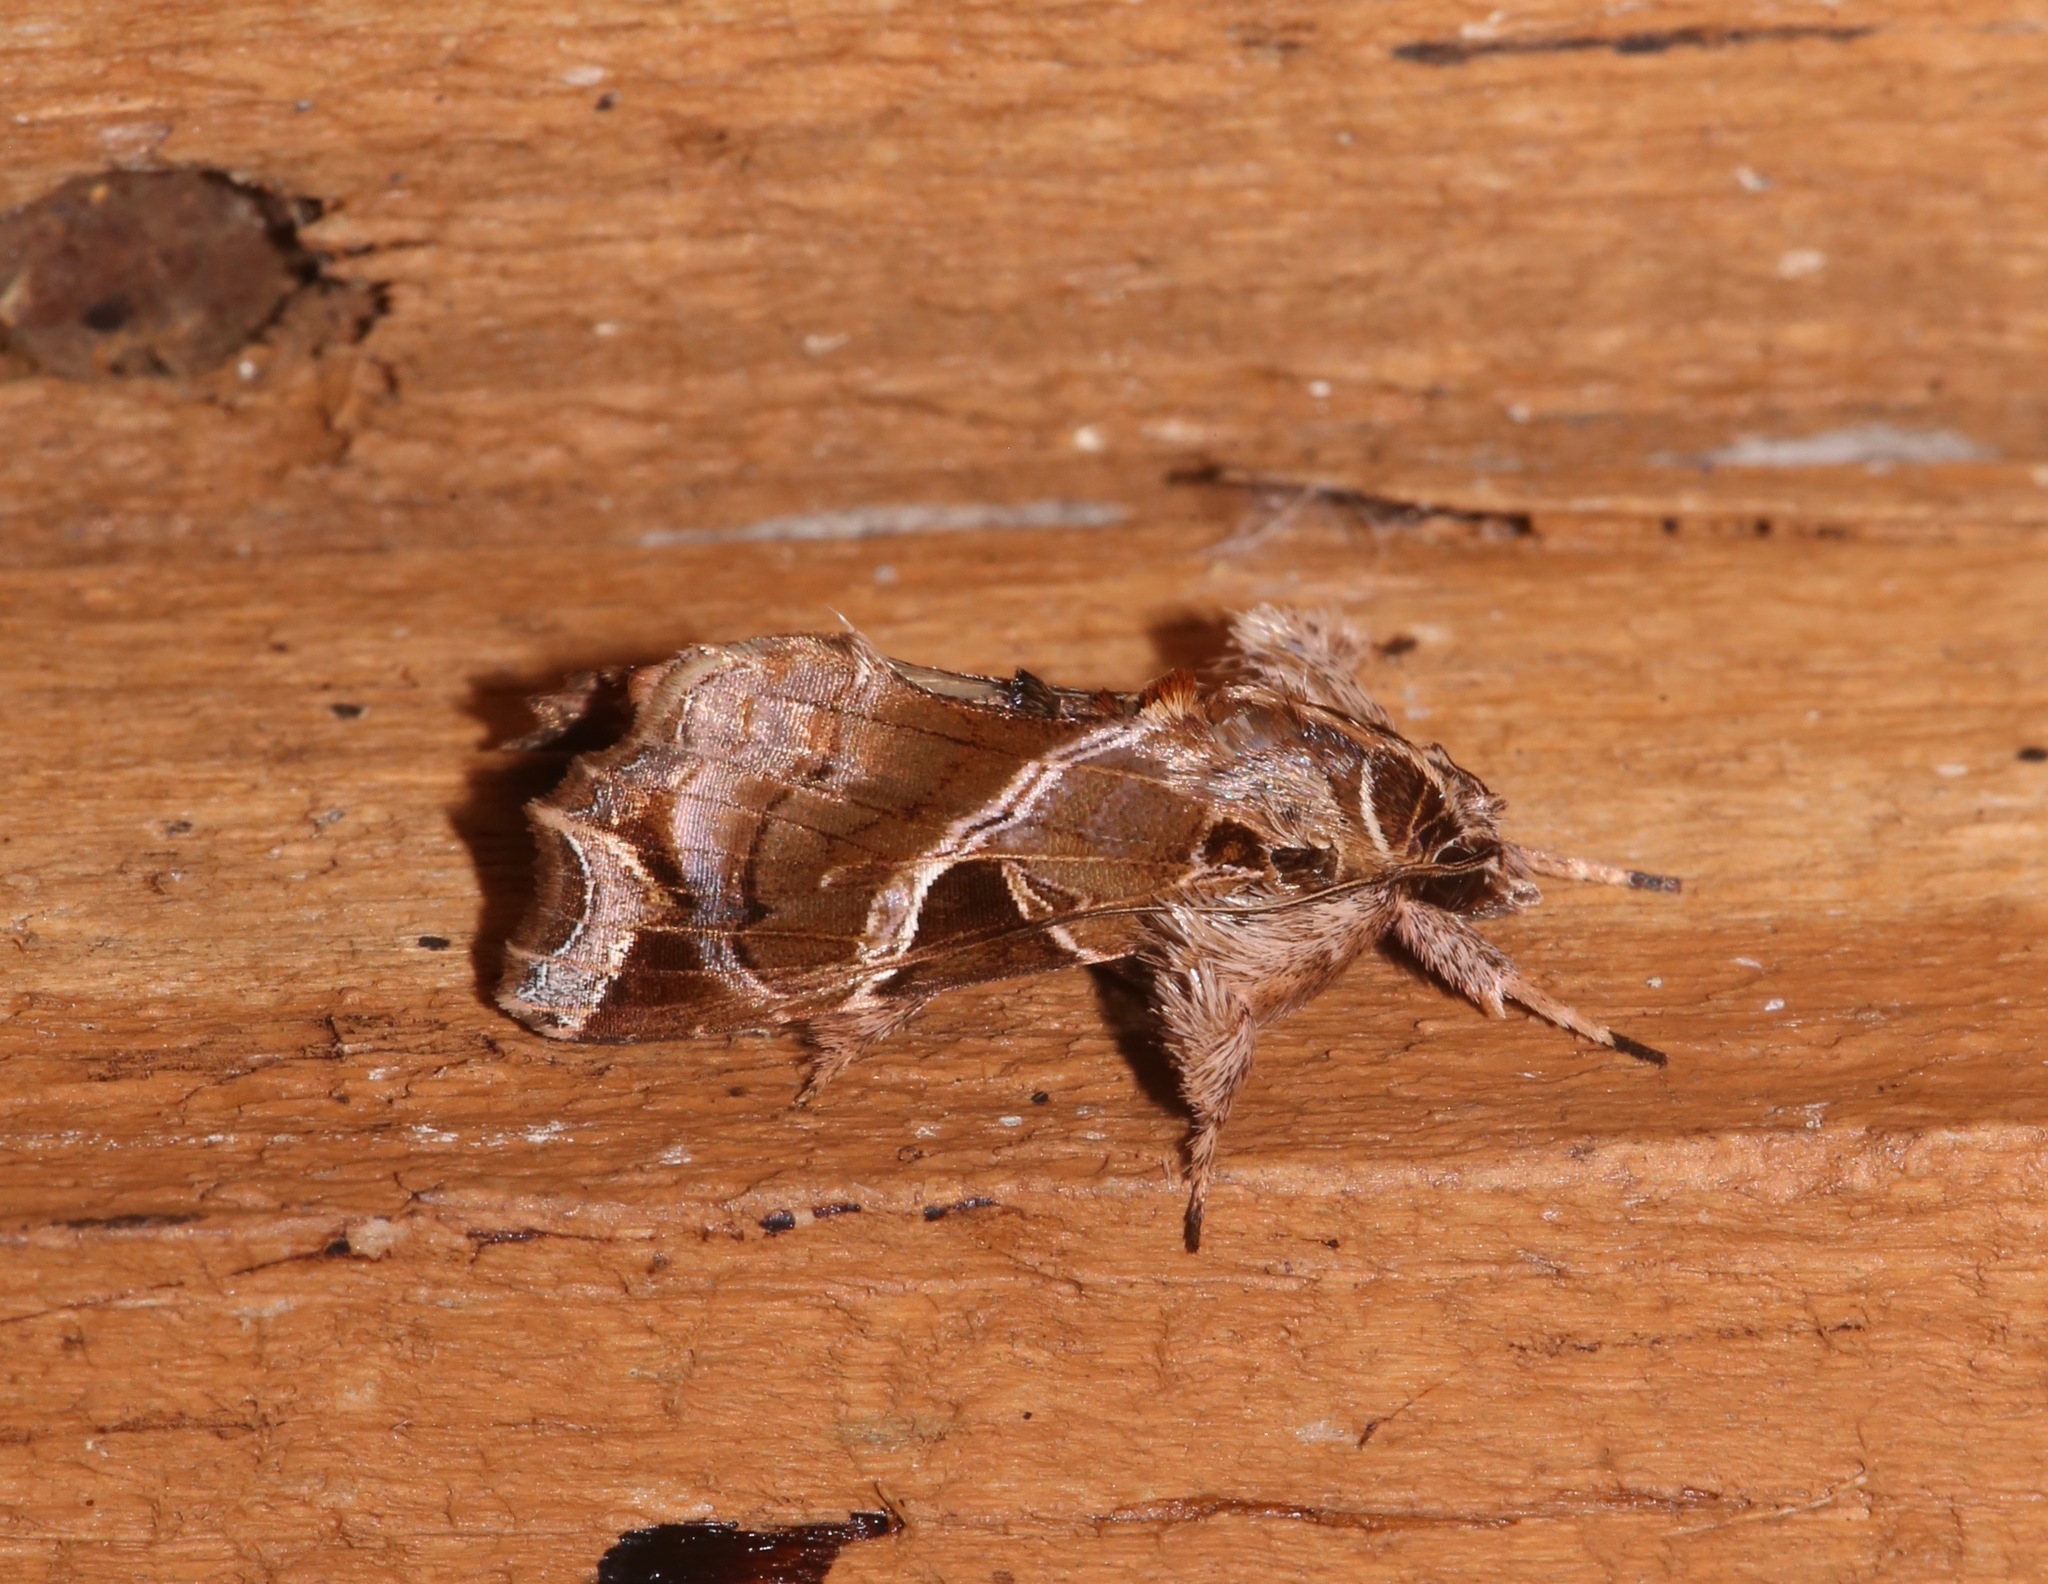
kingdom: Animalia
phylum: Arthropoda
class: Insecta
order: Lepidoptera
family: Noctuidae
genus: Callopistria
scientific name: Callopistria floridensis
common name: Florida fern moth
